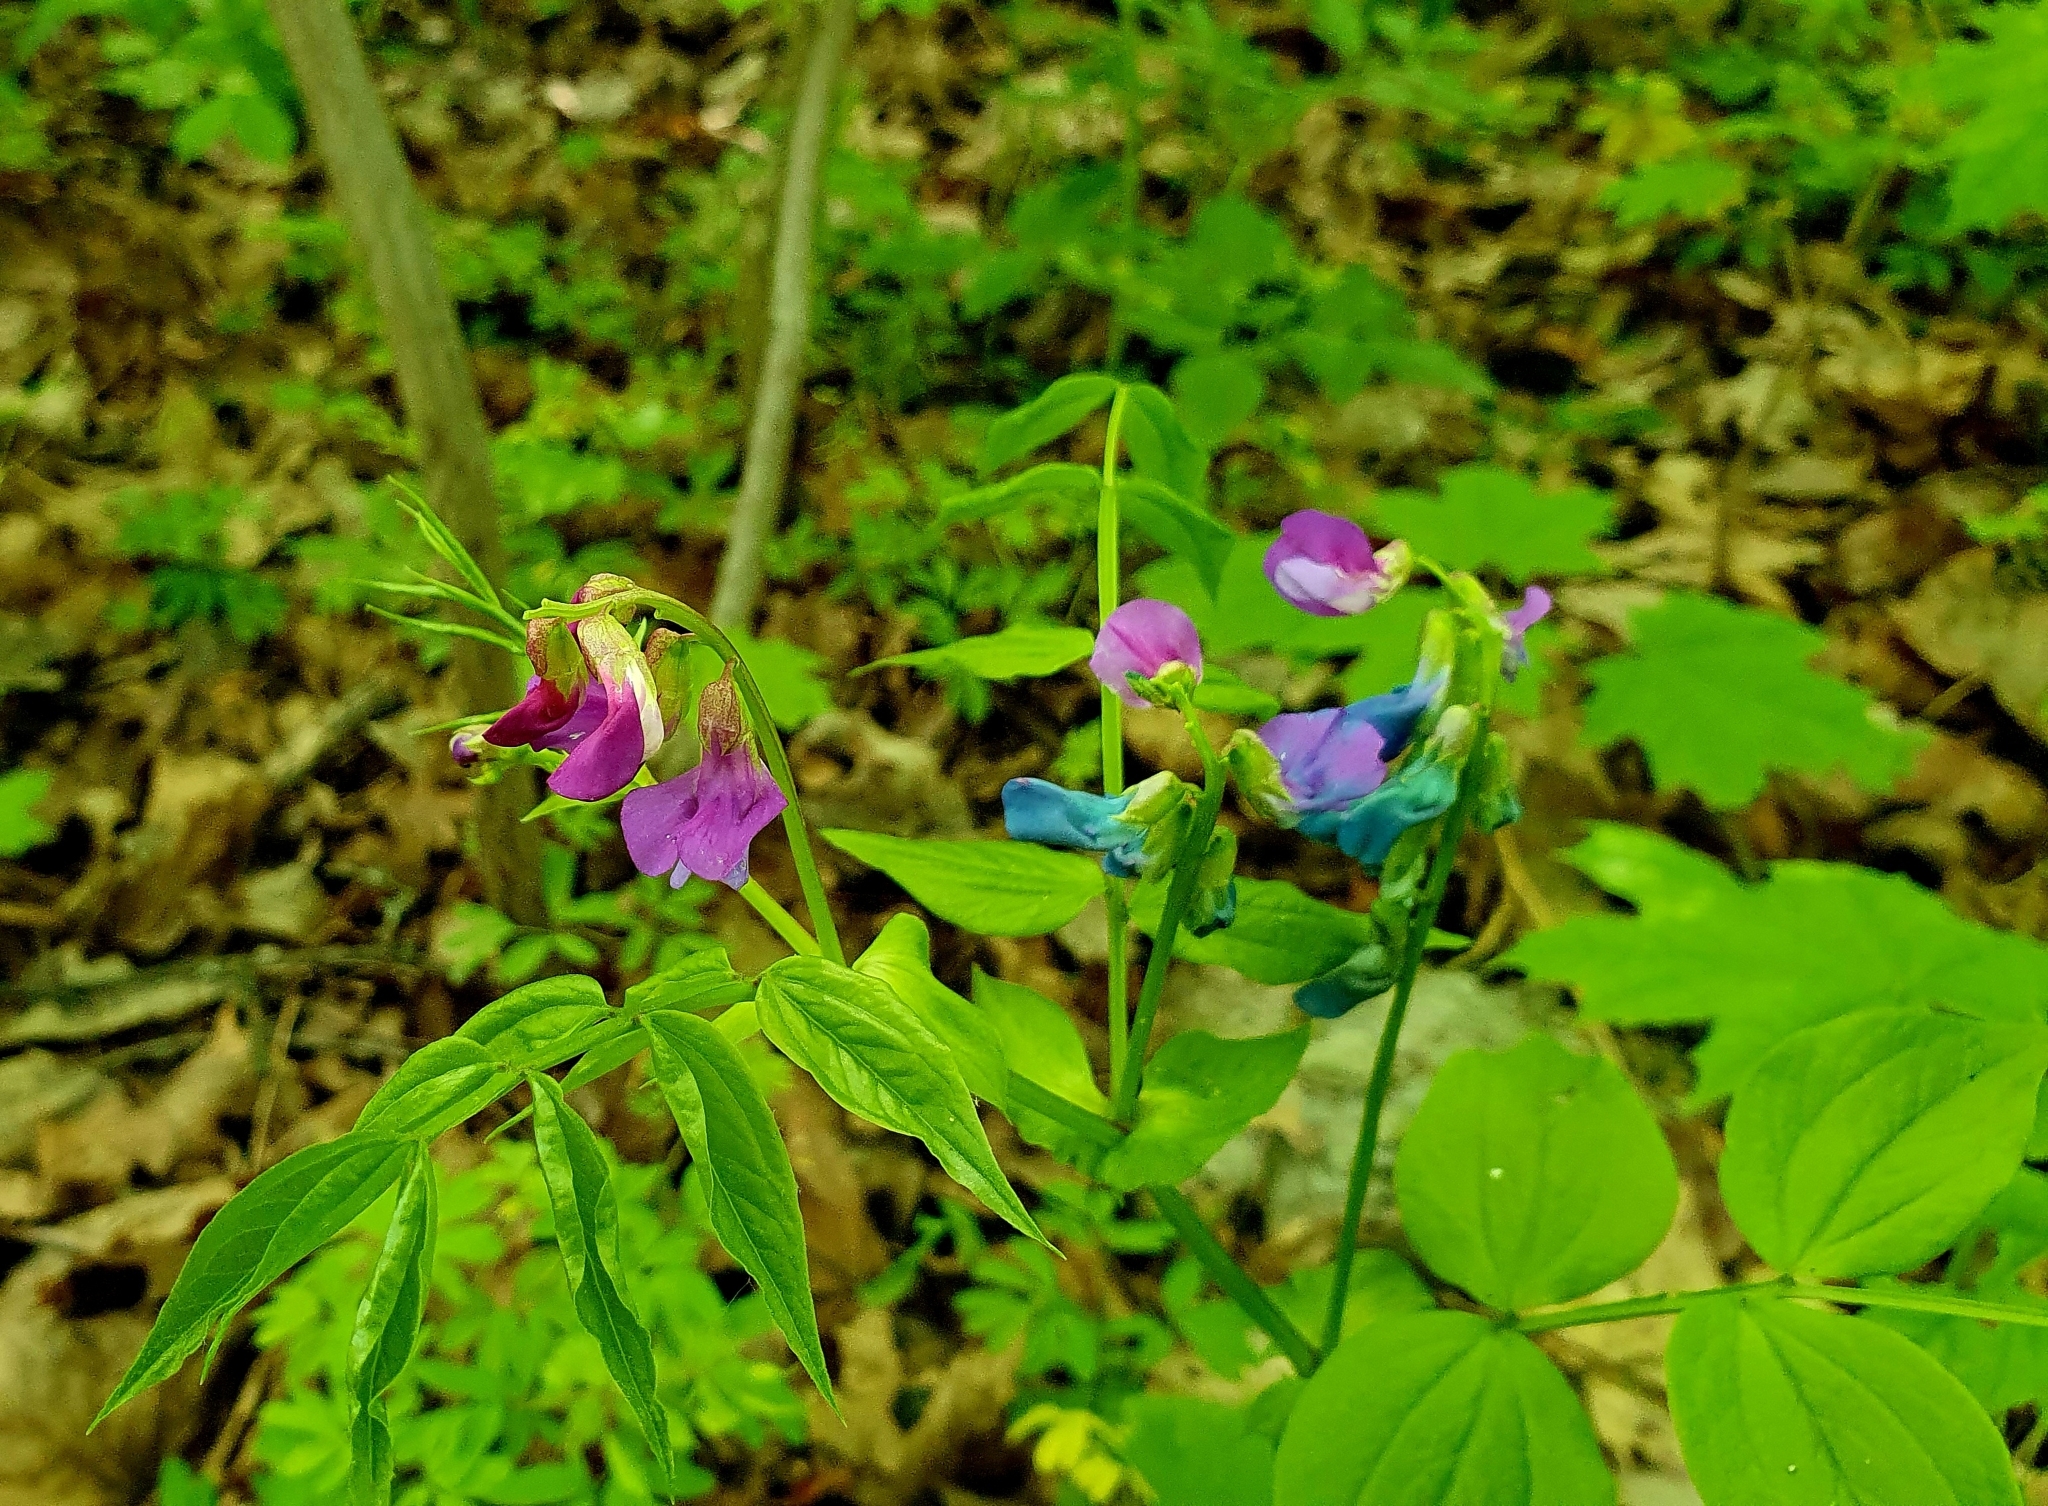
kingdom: Plantae
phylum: Tracheophyta
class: Magnoliopsida
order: Fabales
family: Fabaceae
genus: Lathyrus
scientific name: Lathyrus vernus
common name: Spring pea
